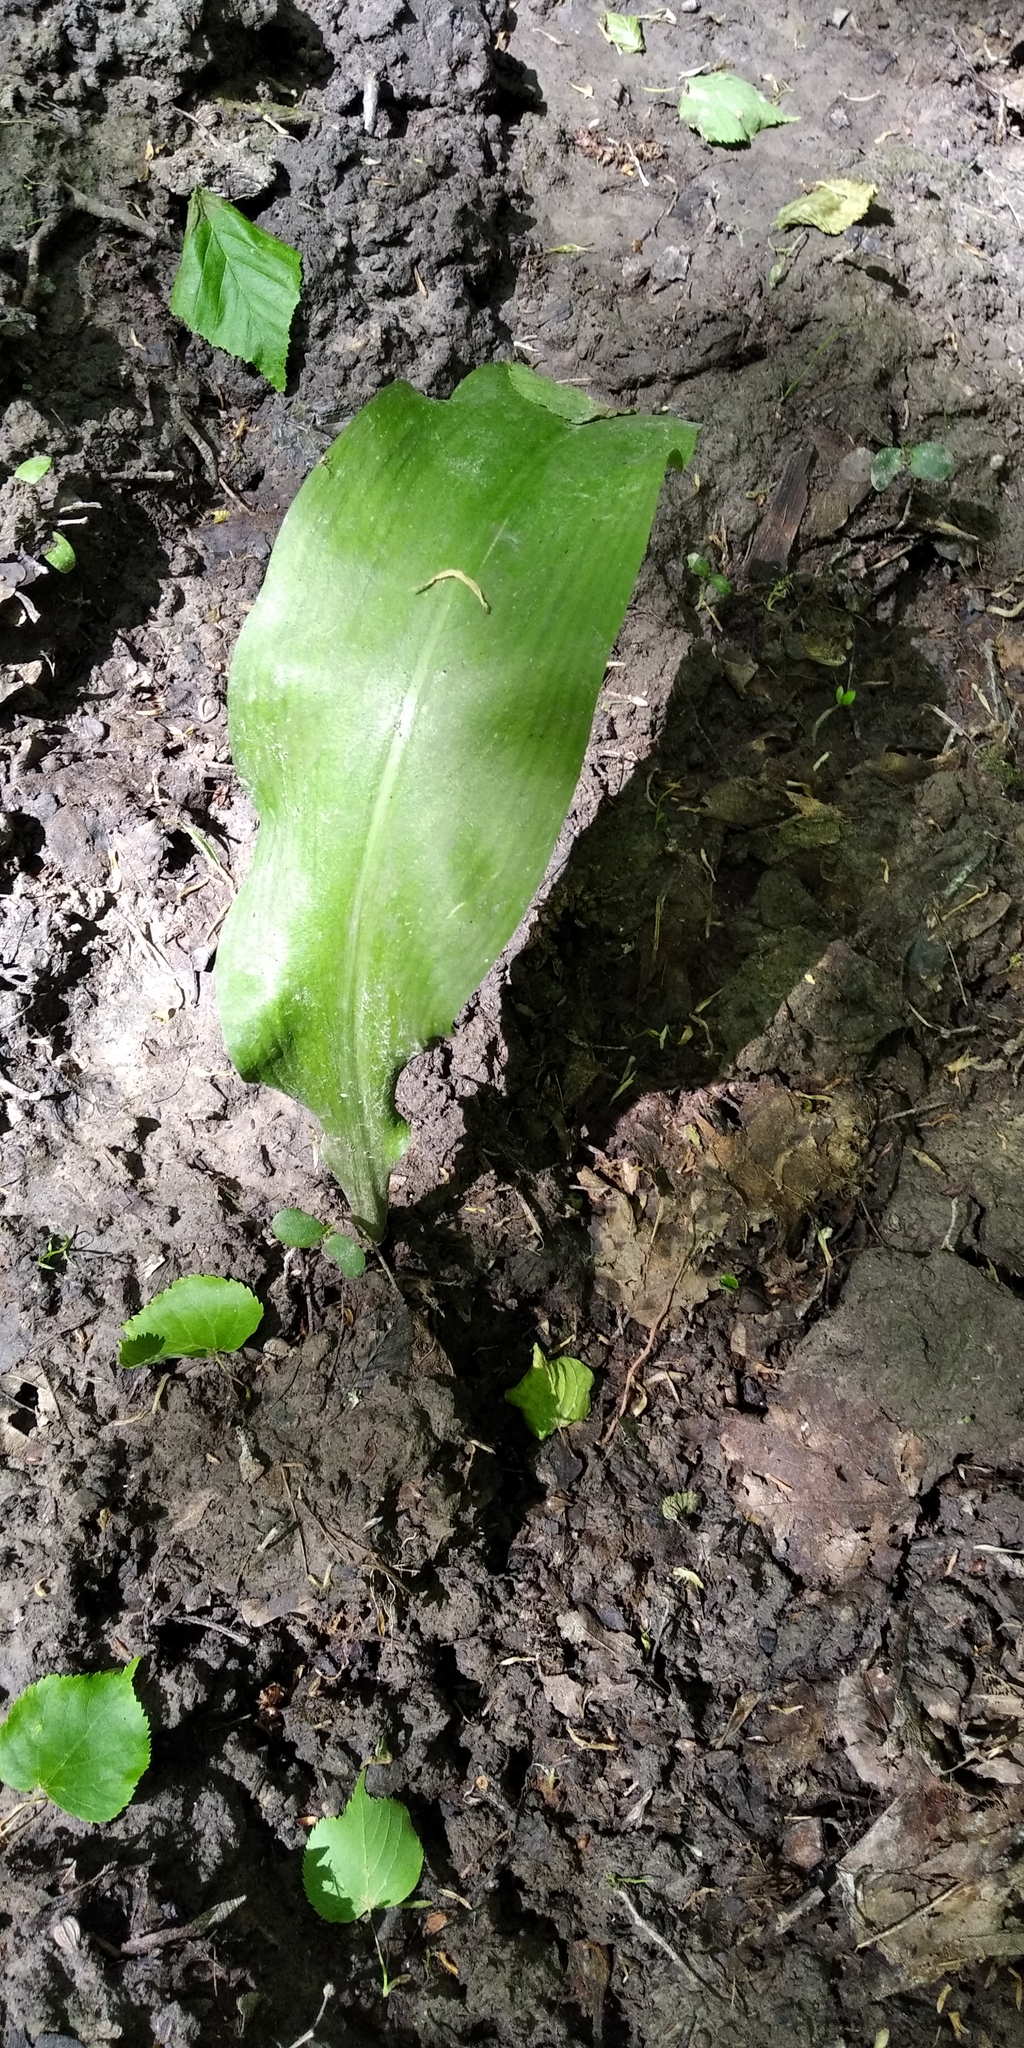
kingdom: Plantae
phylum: Tracheophyta
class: Liliopsida
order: Asparagales
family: Amaryllidaceae
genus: Allium
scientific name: Allium ursinum
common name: Ramsons
